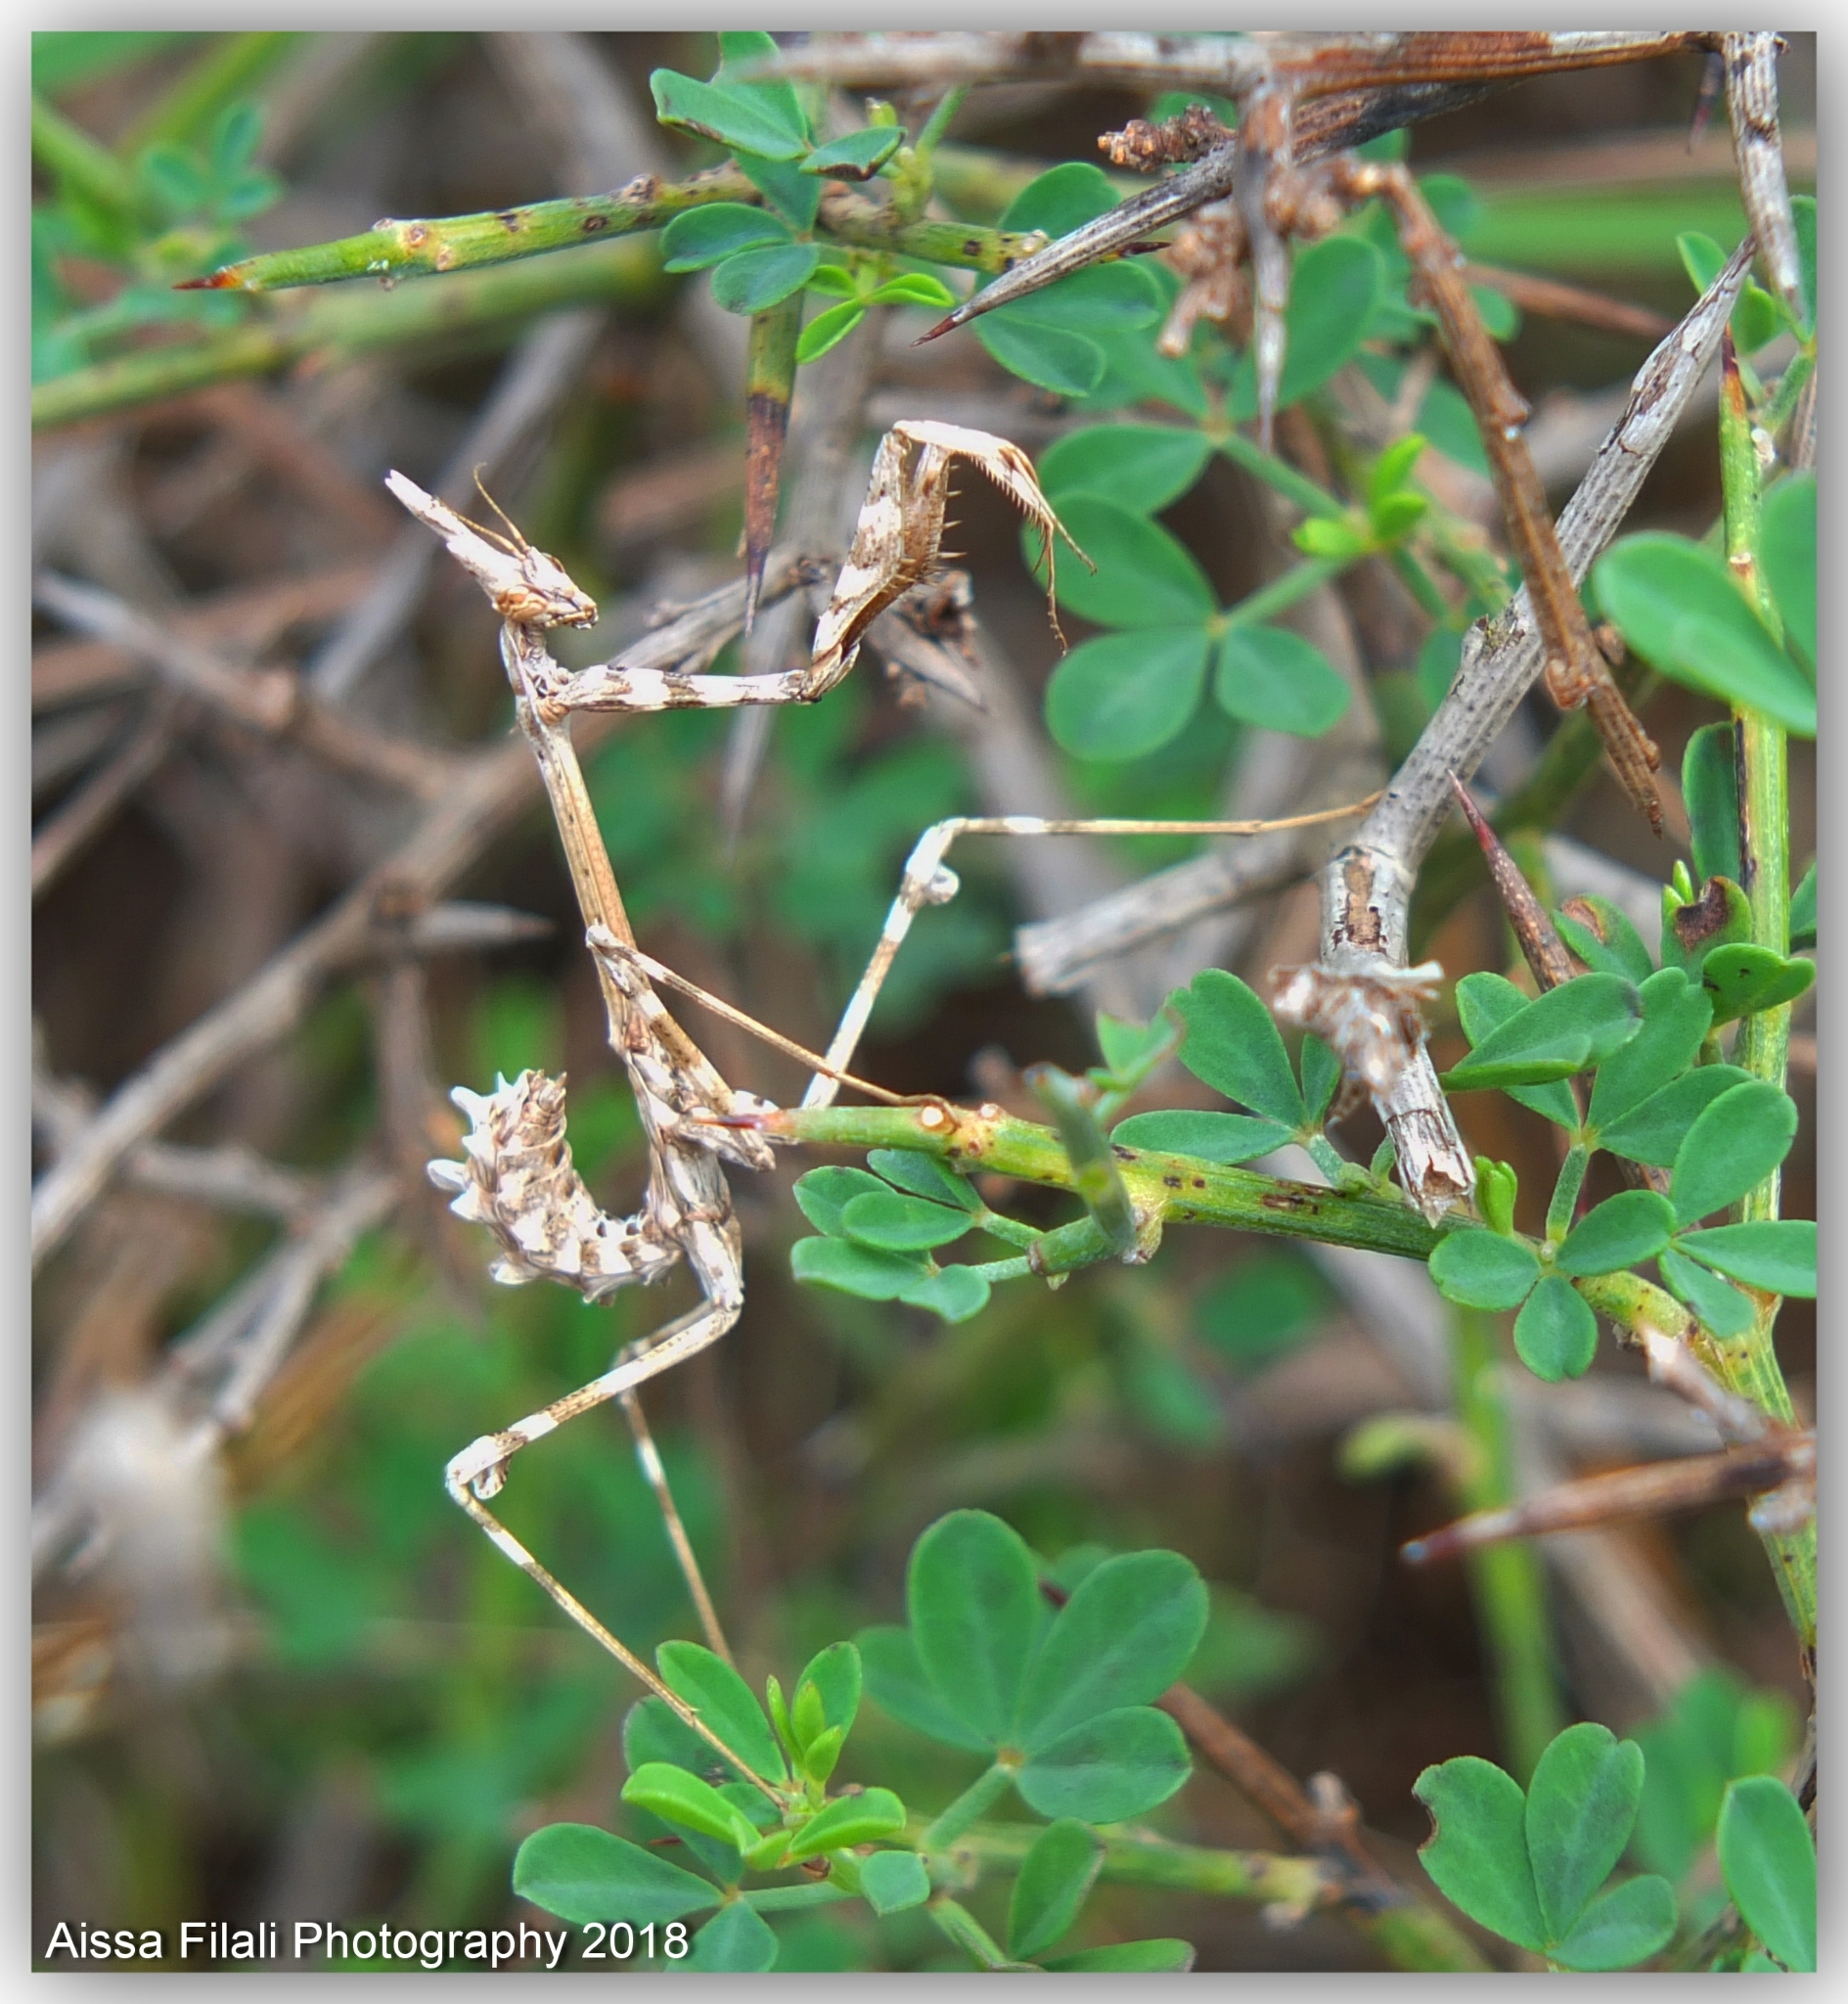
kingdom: Animalia
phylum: Arthropoda
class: Insecta
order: Mantodea
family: Empusidae
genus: Empusa
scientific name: Empusa pennata
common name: Conehead mantis
